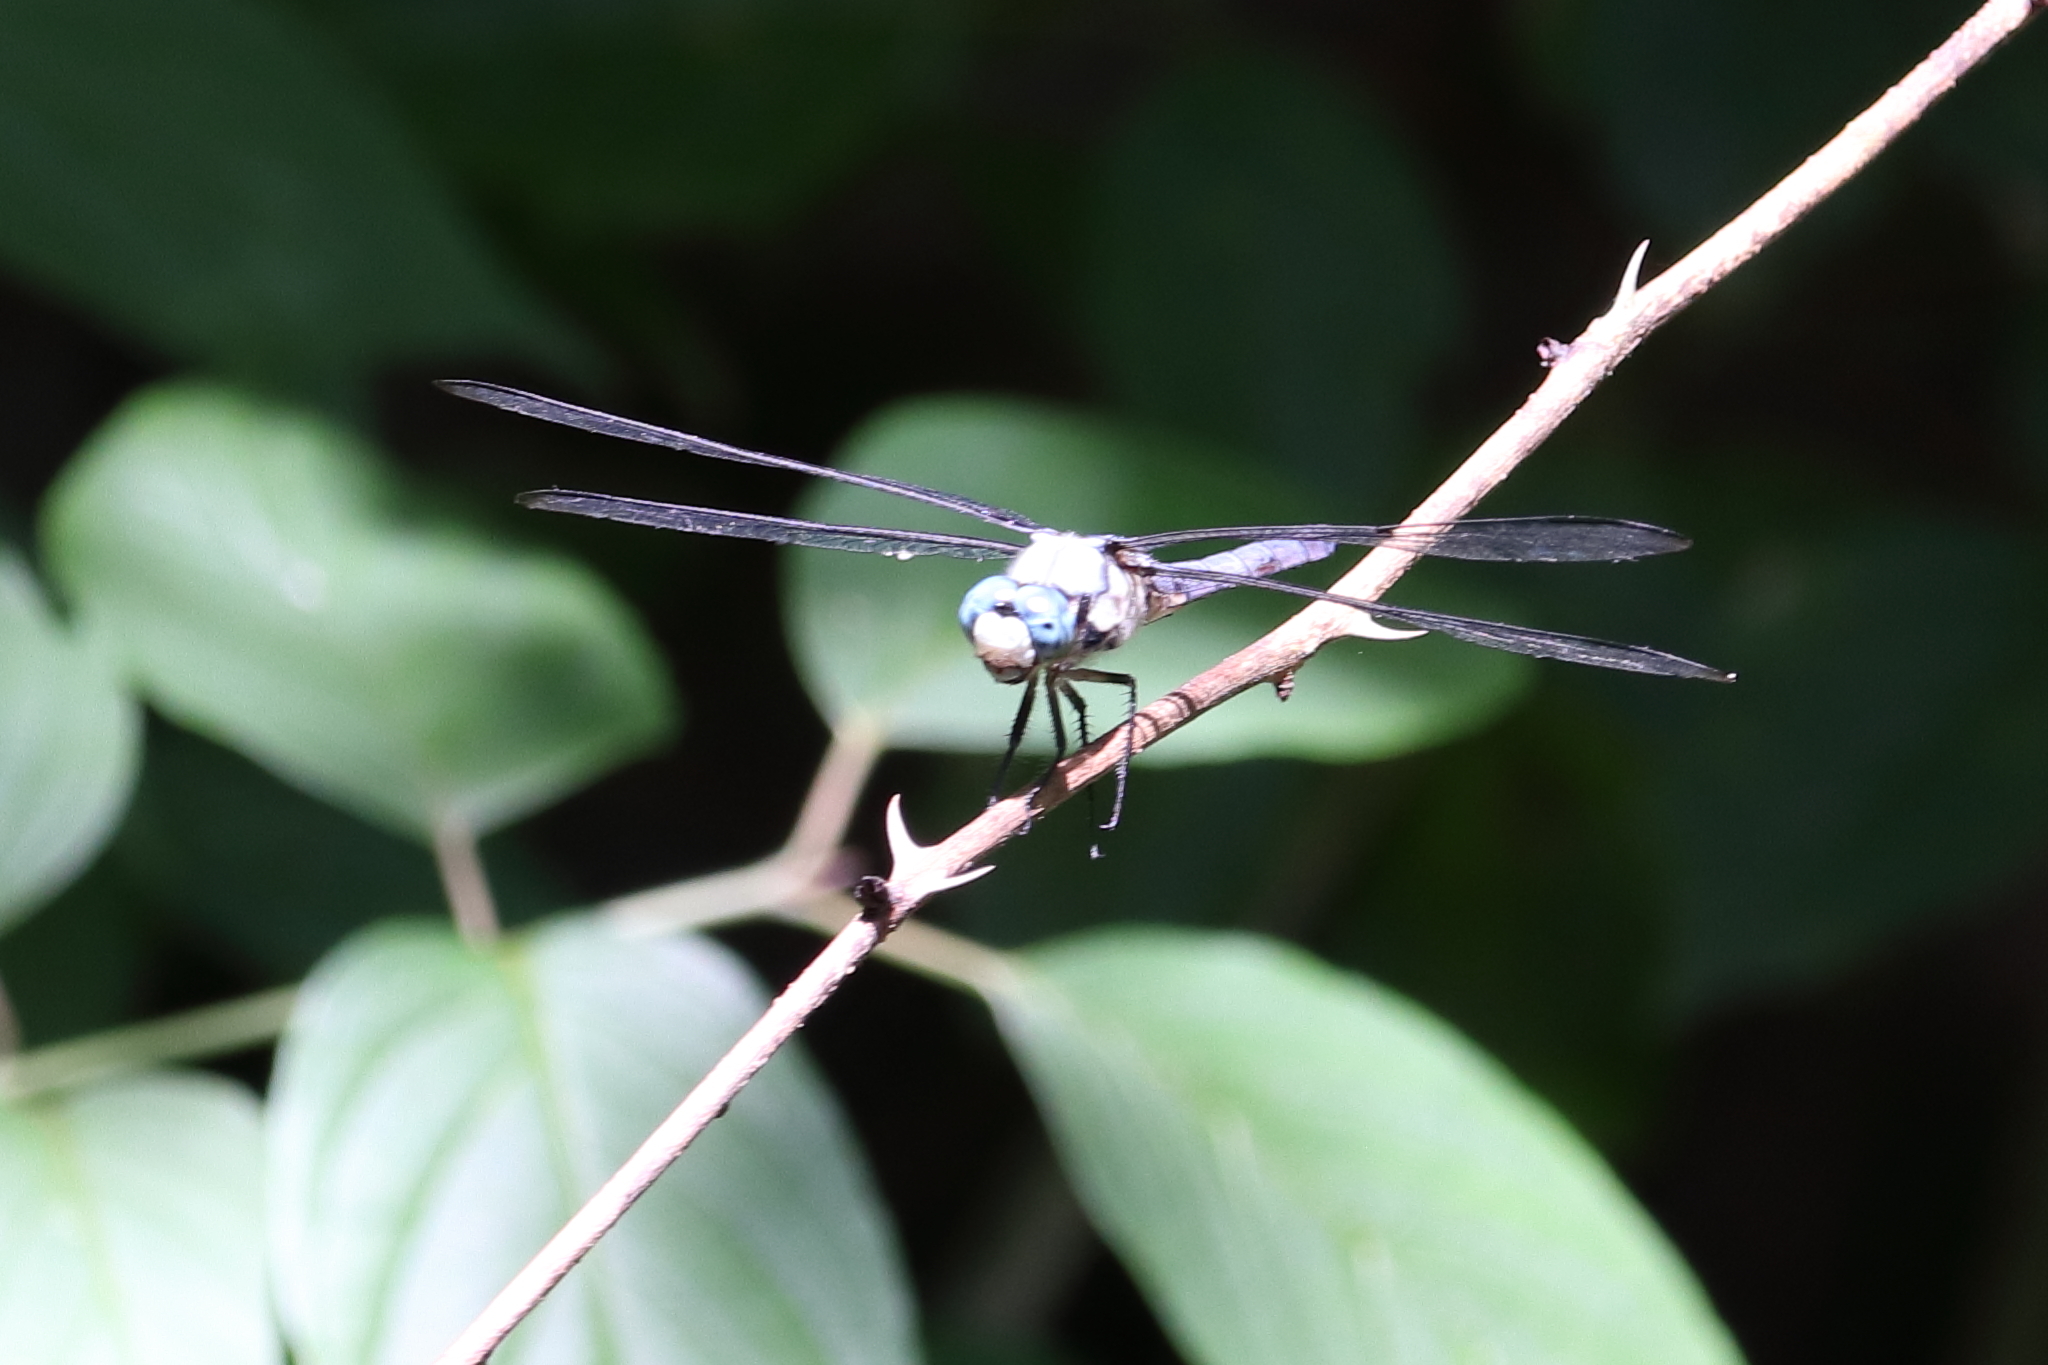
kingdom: Animalia
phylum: Arthropoda
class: Insecta
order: Odonata
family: Libellulidae
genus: Libellula
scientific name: Libellula vibrans
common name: Great blue skimmer
